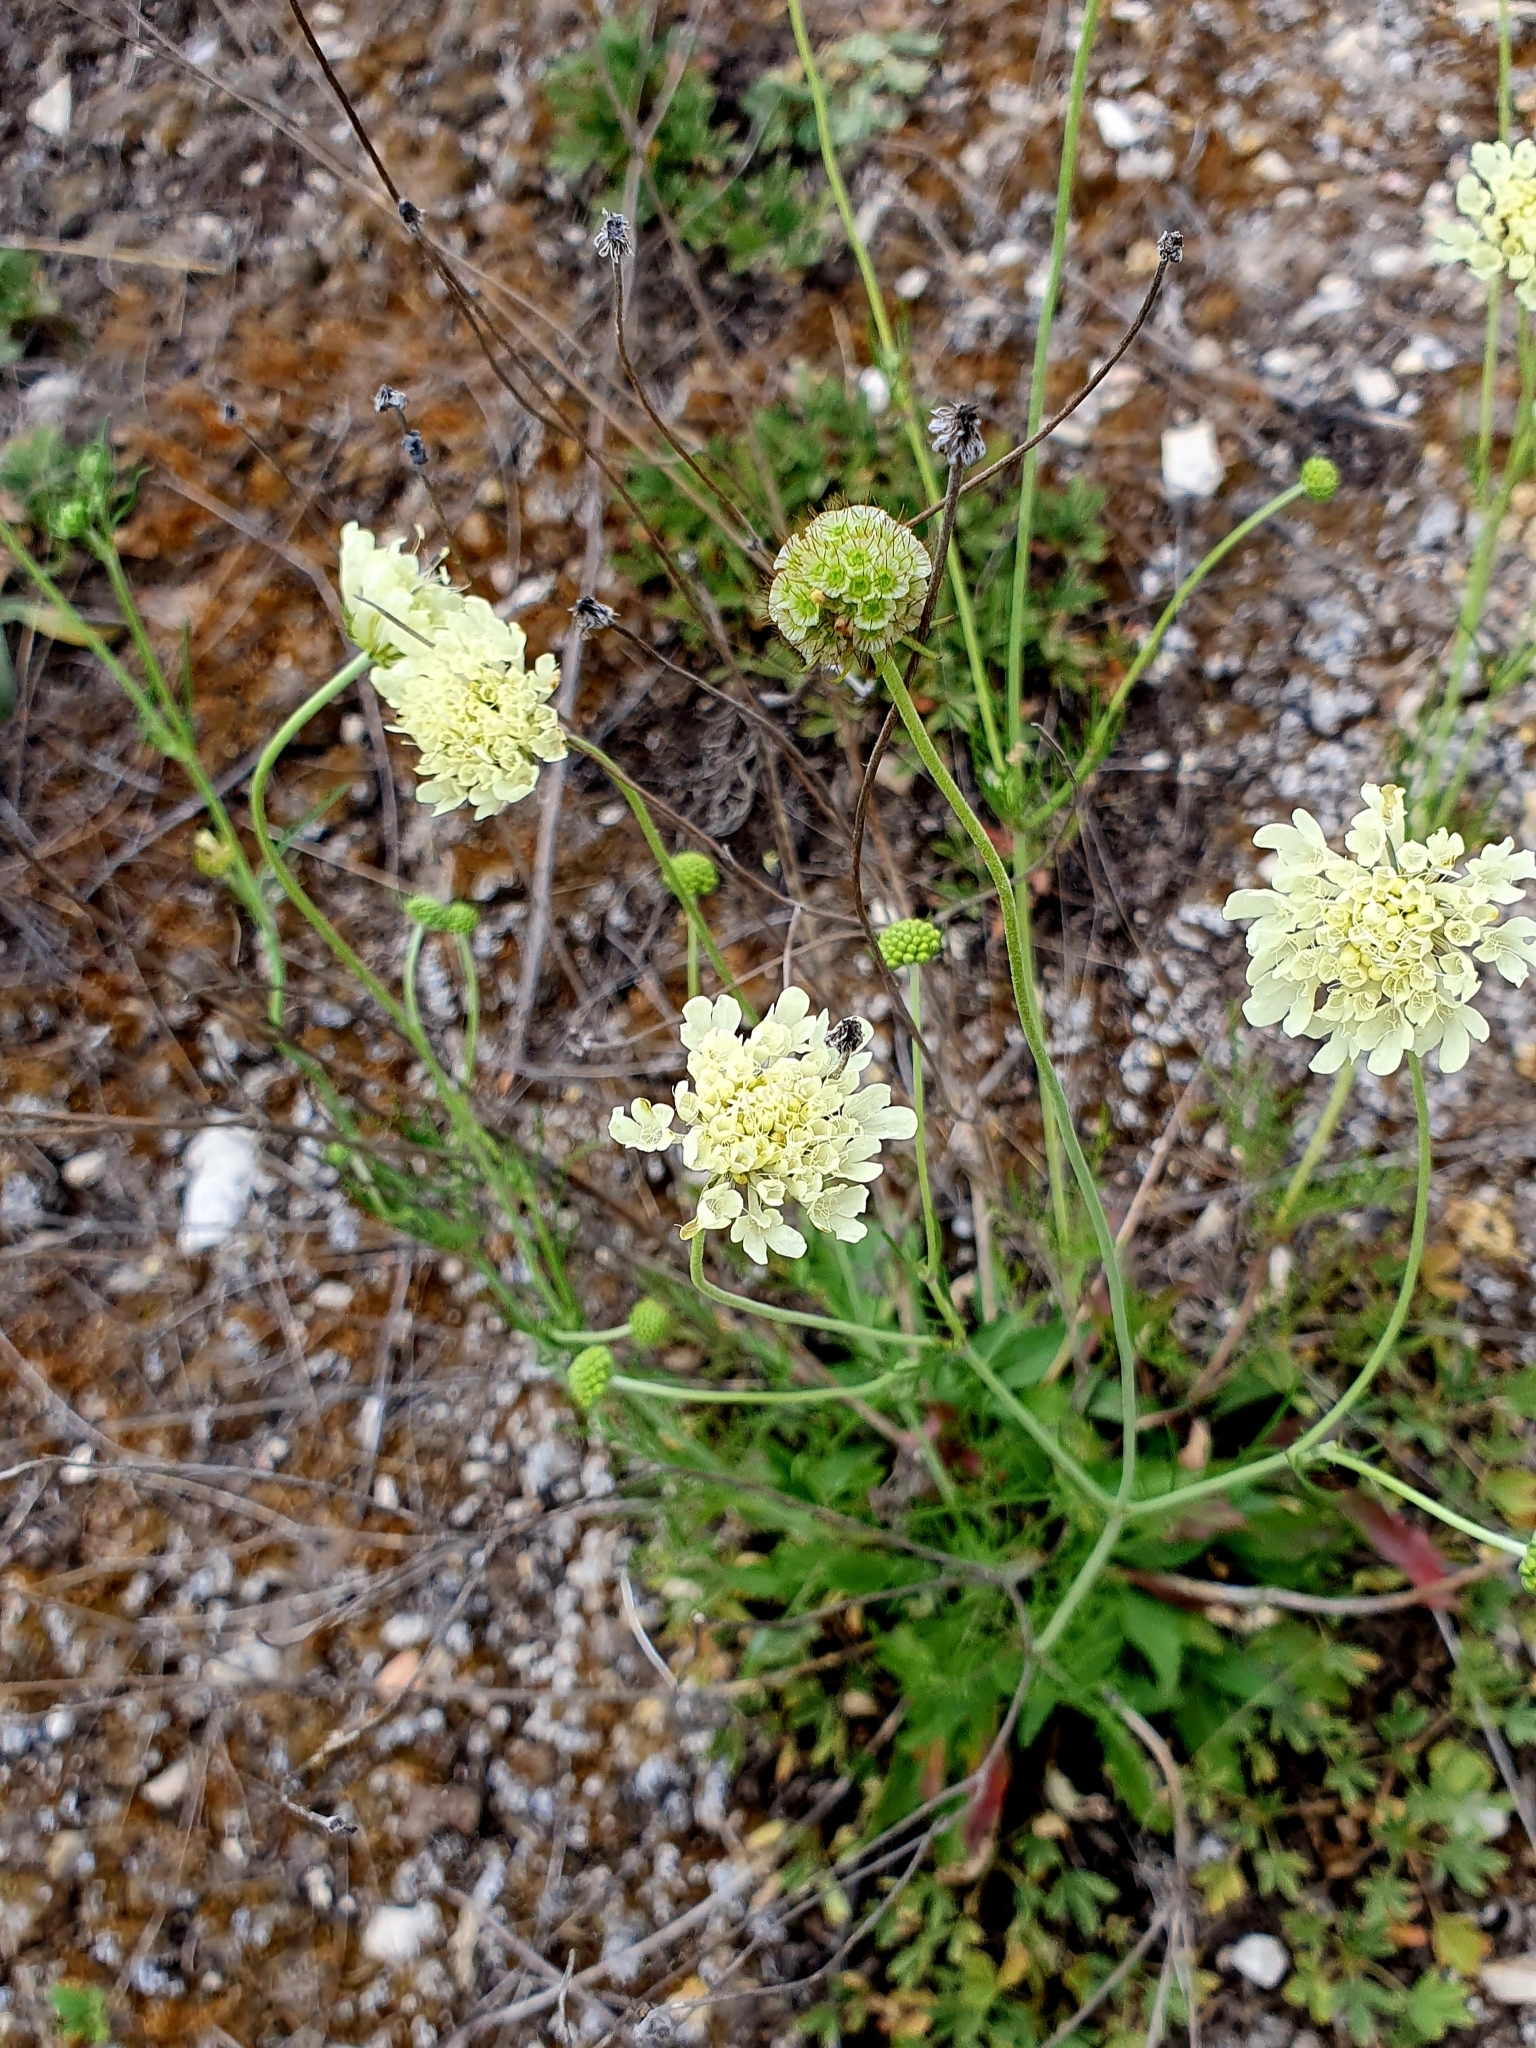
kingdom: Plantae
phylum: Tracheophyta
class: Magnoliopsida
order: Dipsacales
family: Caprifoliaceae
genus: Scabiosa
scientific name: Scabiosa ochroleuca
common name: Cream pincushions
